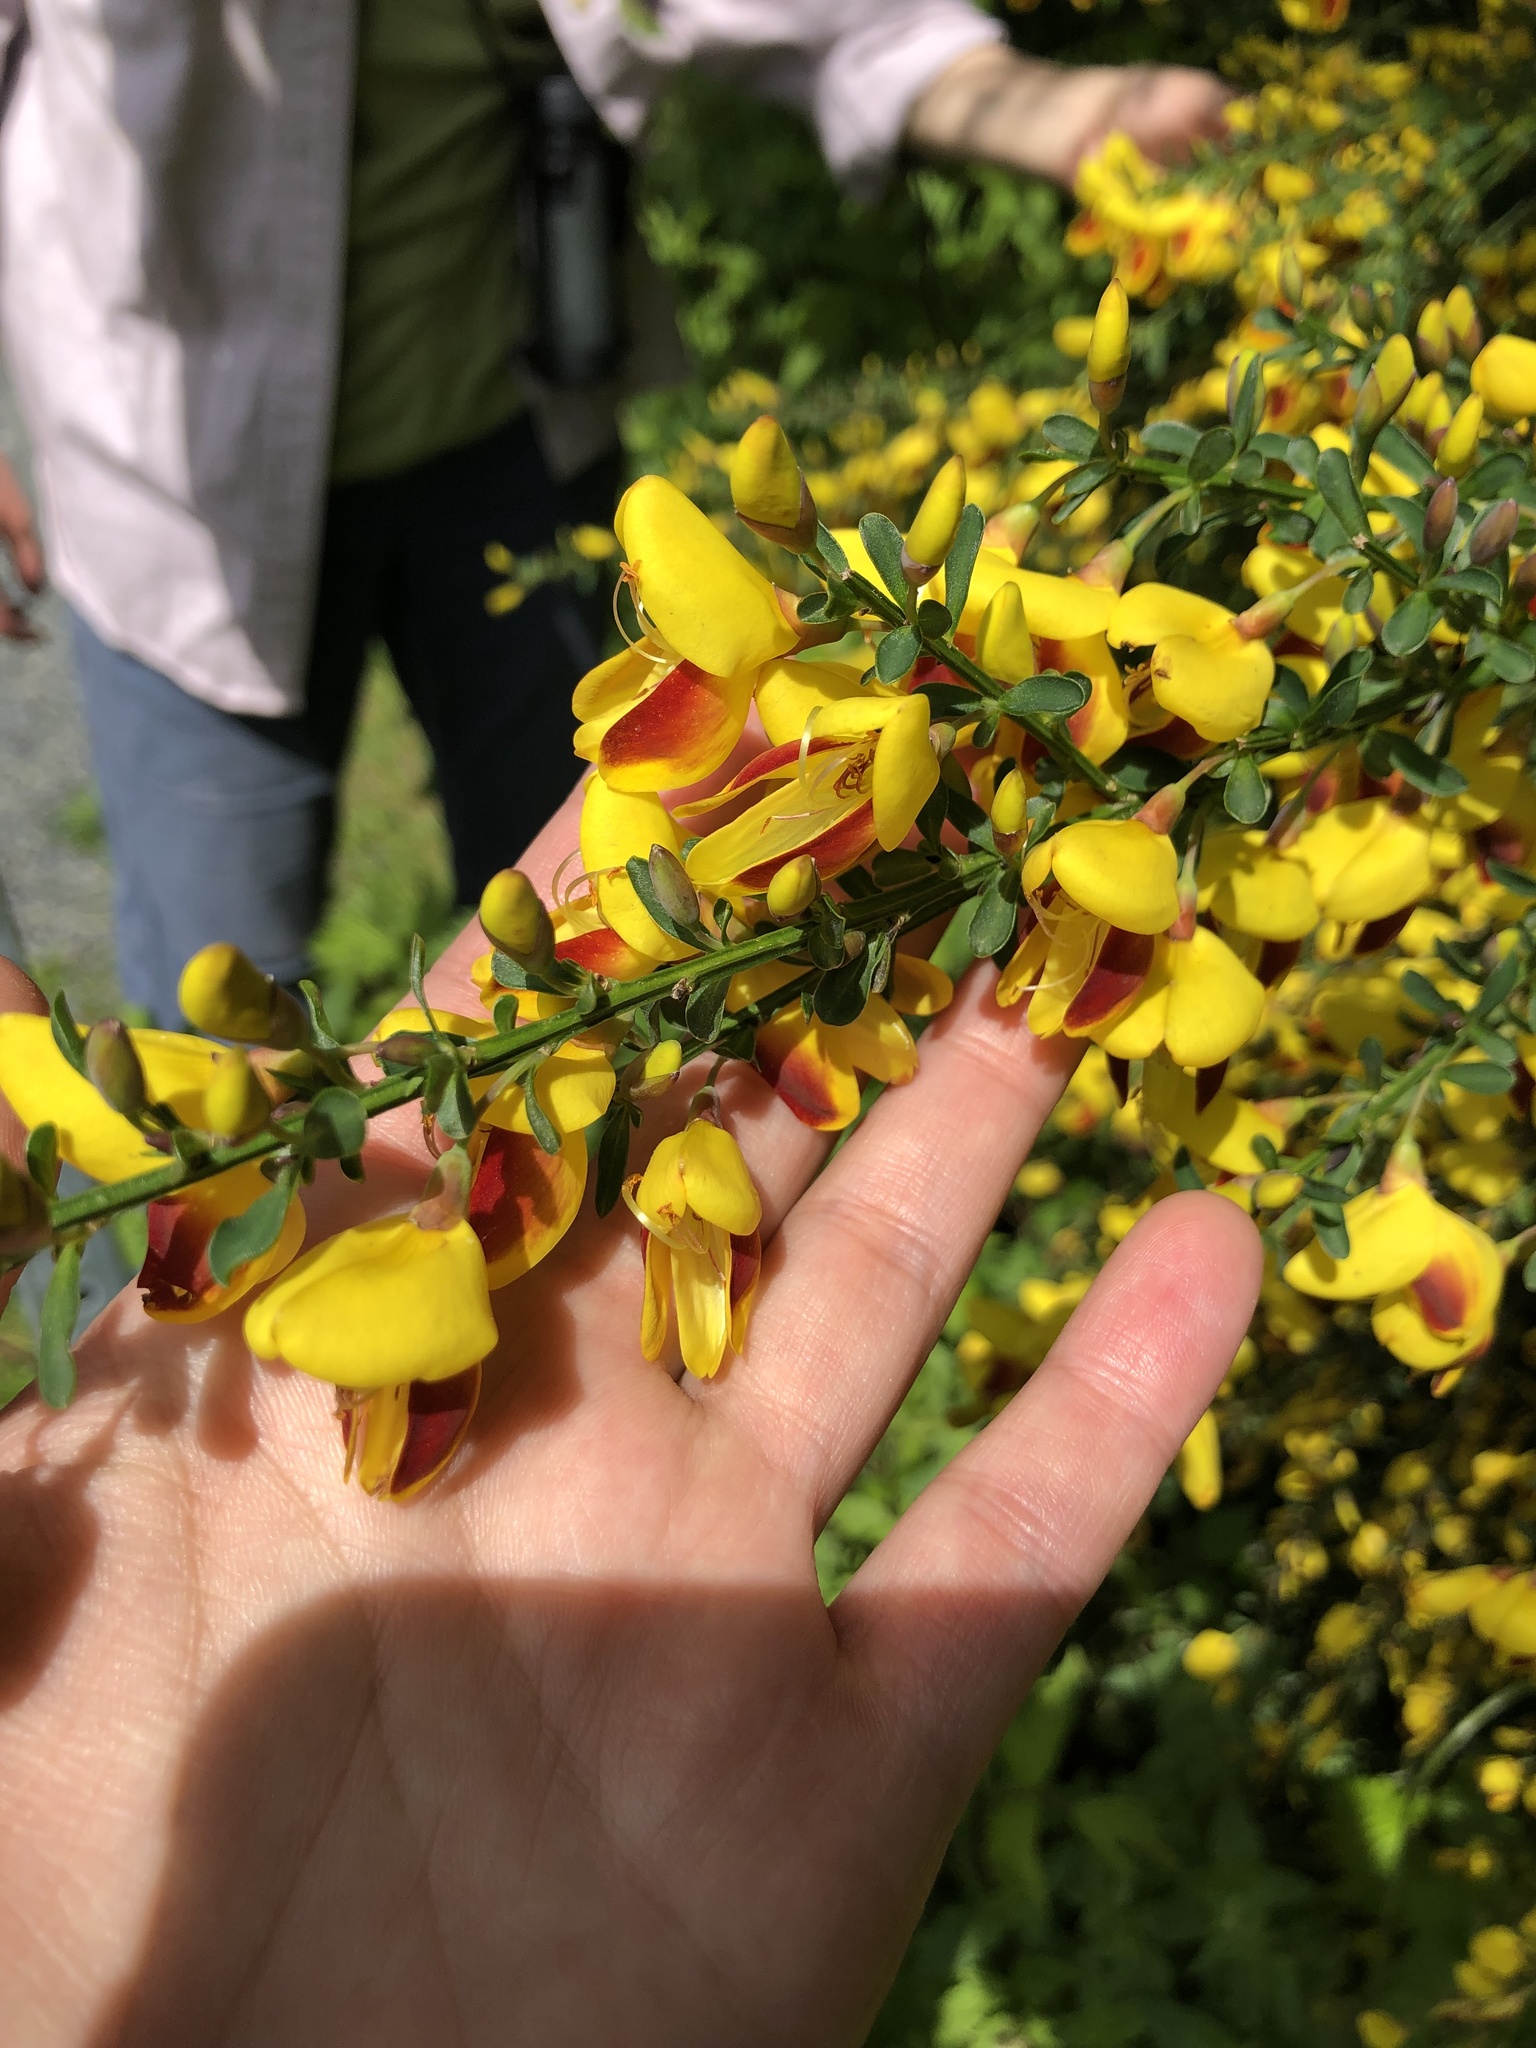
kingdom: Plantae
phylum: Tracheophyta
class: Magnoliopsida
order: Fabales
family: Fabaceae
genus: Cytisus
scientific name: Cytisus scoparius
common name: Scotch broom
